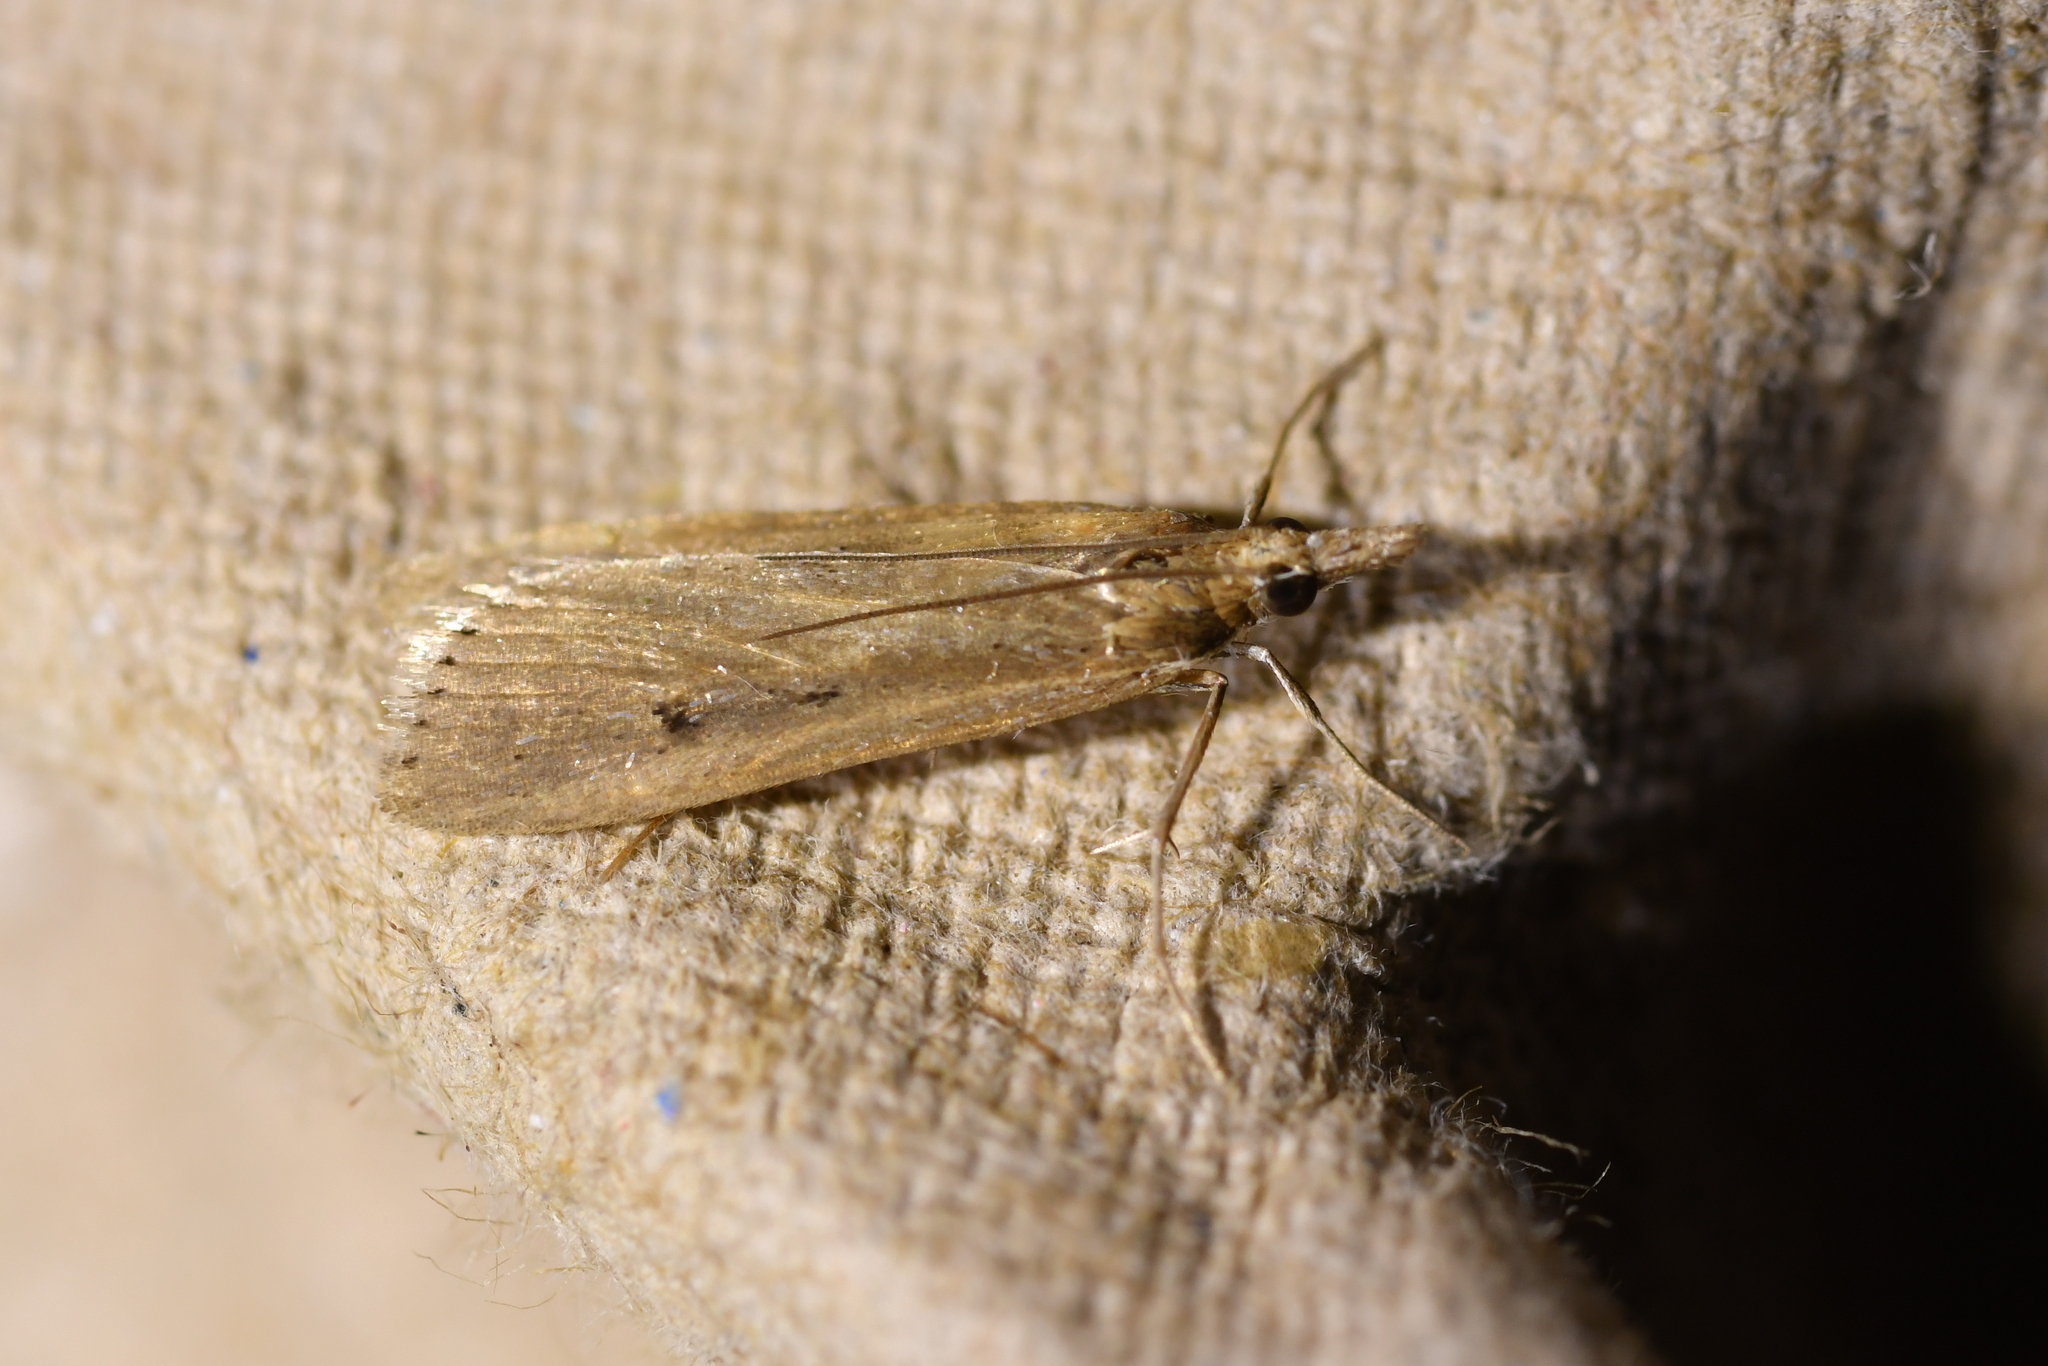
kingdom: Animalia
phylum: Arthropoda
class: Insecta
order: Lepidoptera
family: Crambidae
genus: Eudonia
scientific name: Eudonia sabulosella
